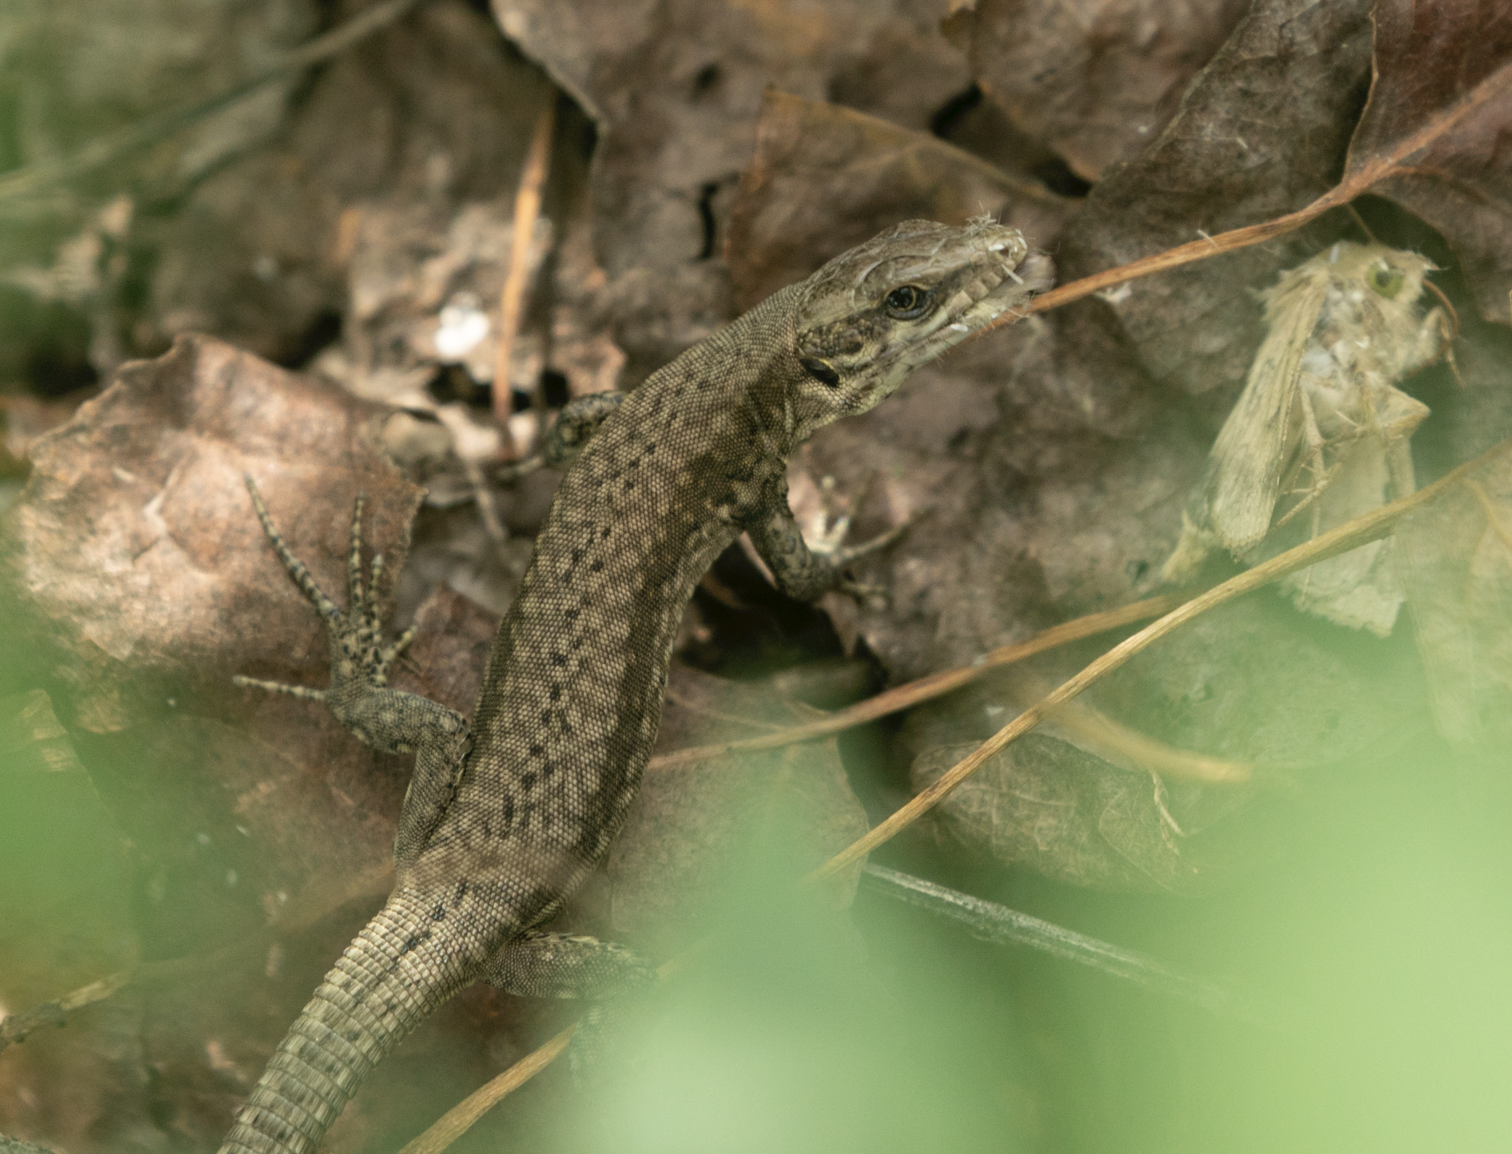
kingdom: Animalia
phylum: Chordata
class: Squamata
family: Lacertidae
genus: Podarcis
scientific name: Podarcis muralis
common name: Common wall lizard
